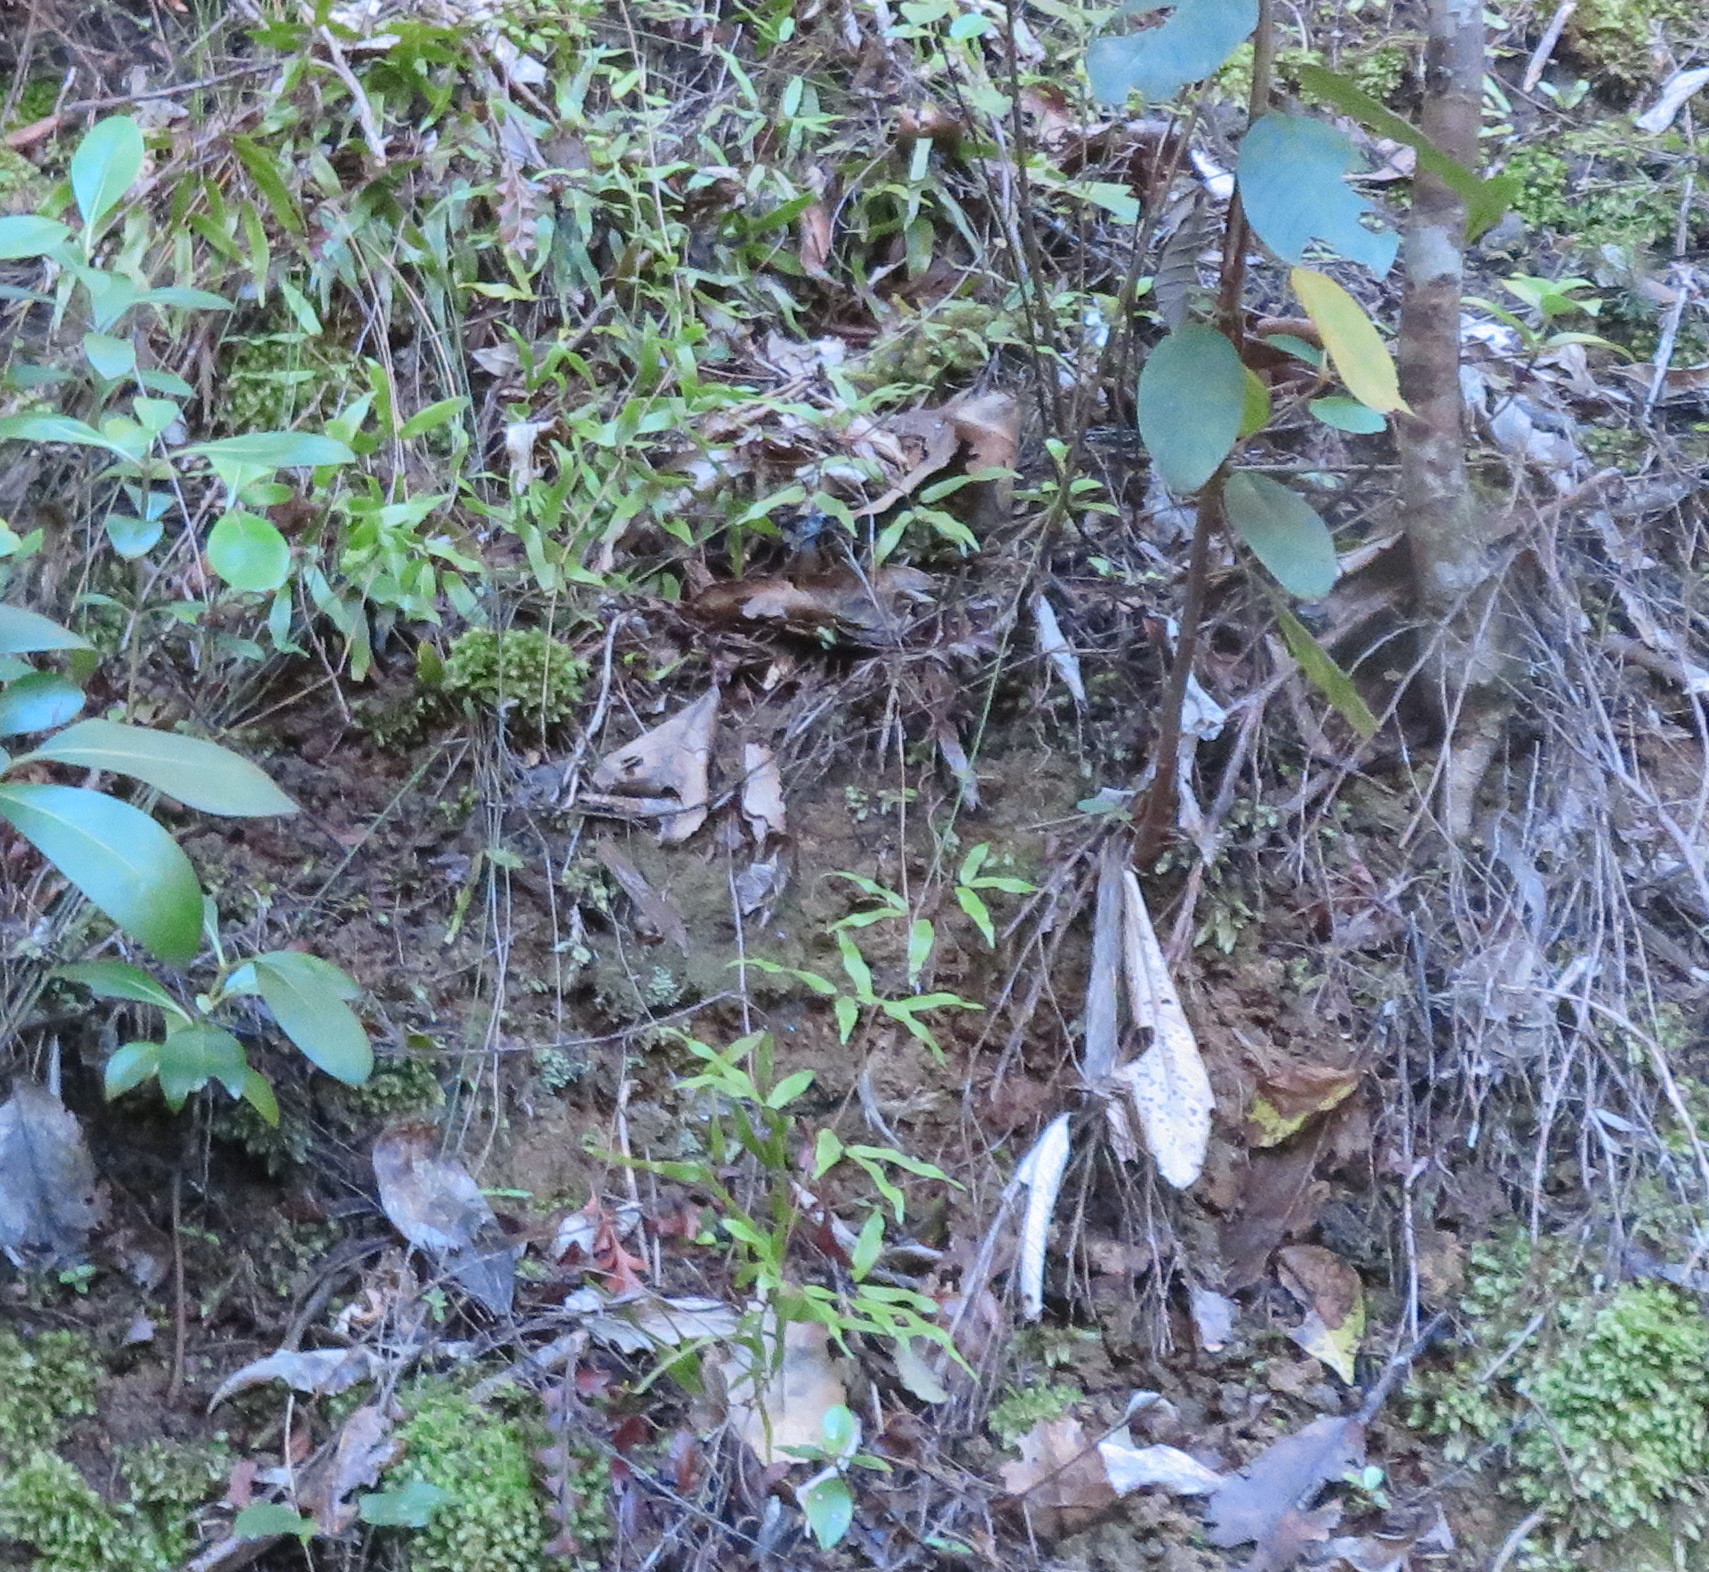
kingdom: Plantae
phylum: Tracheophyta
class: Polypodiopsida
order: Schizaeales
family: Lygodiaceae
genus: Lygodium
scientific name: Lygodium articulatum
